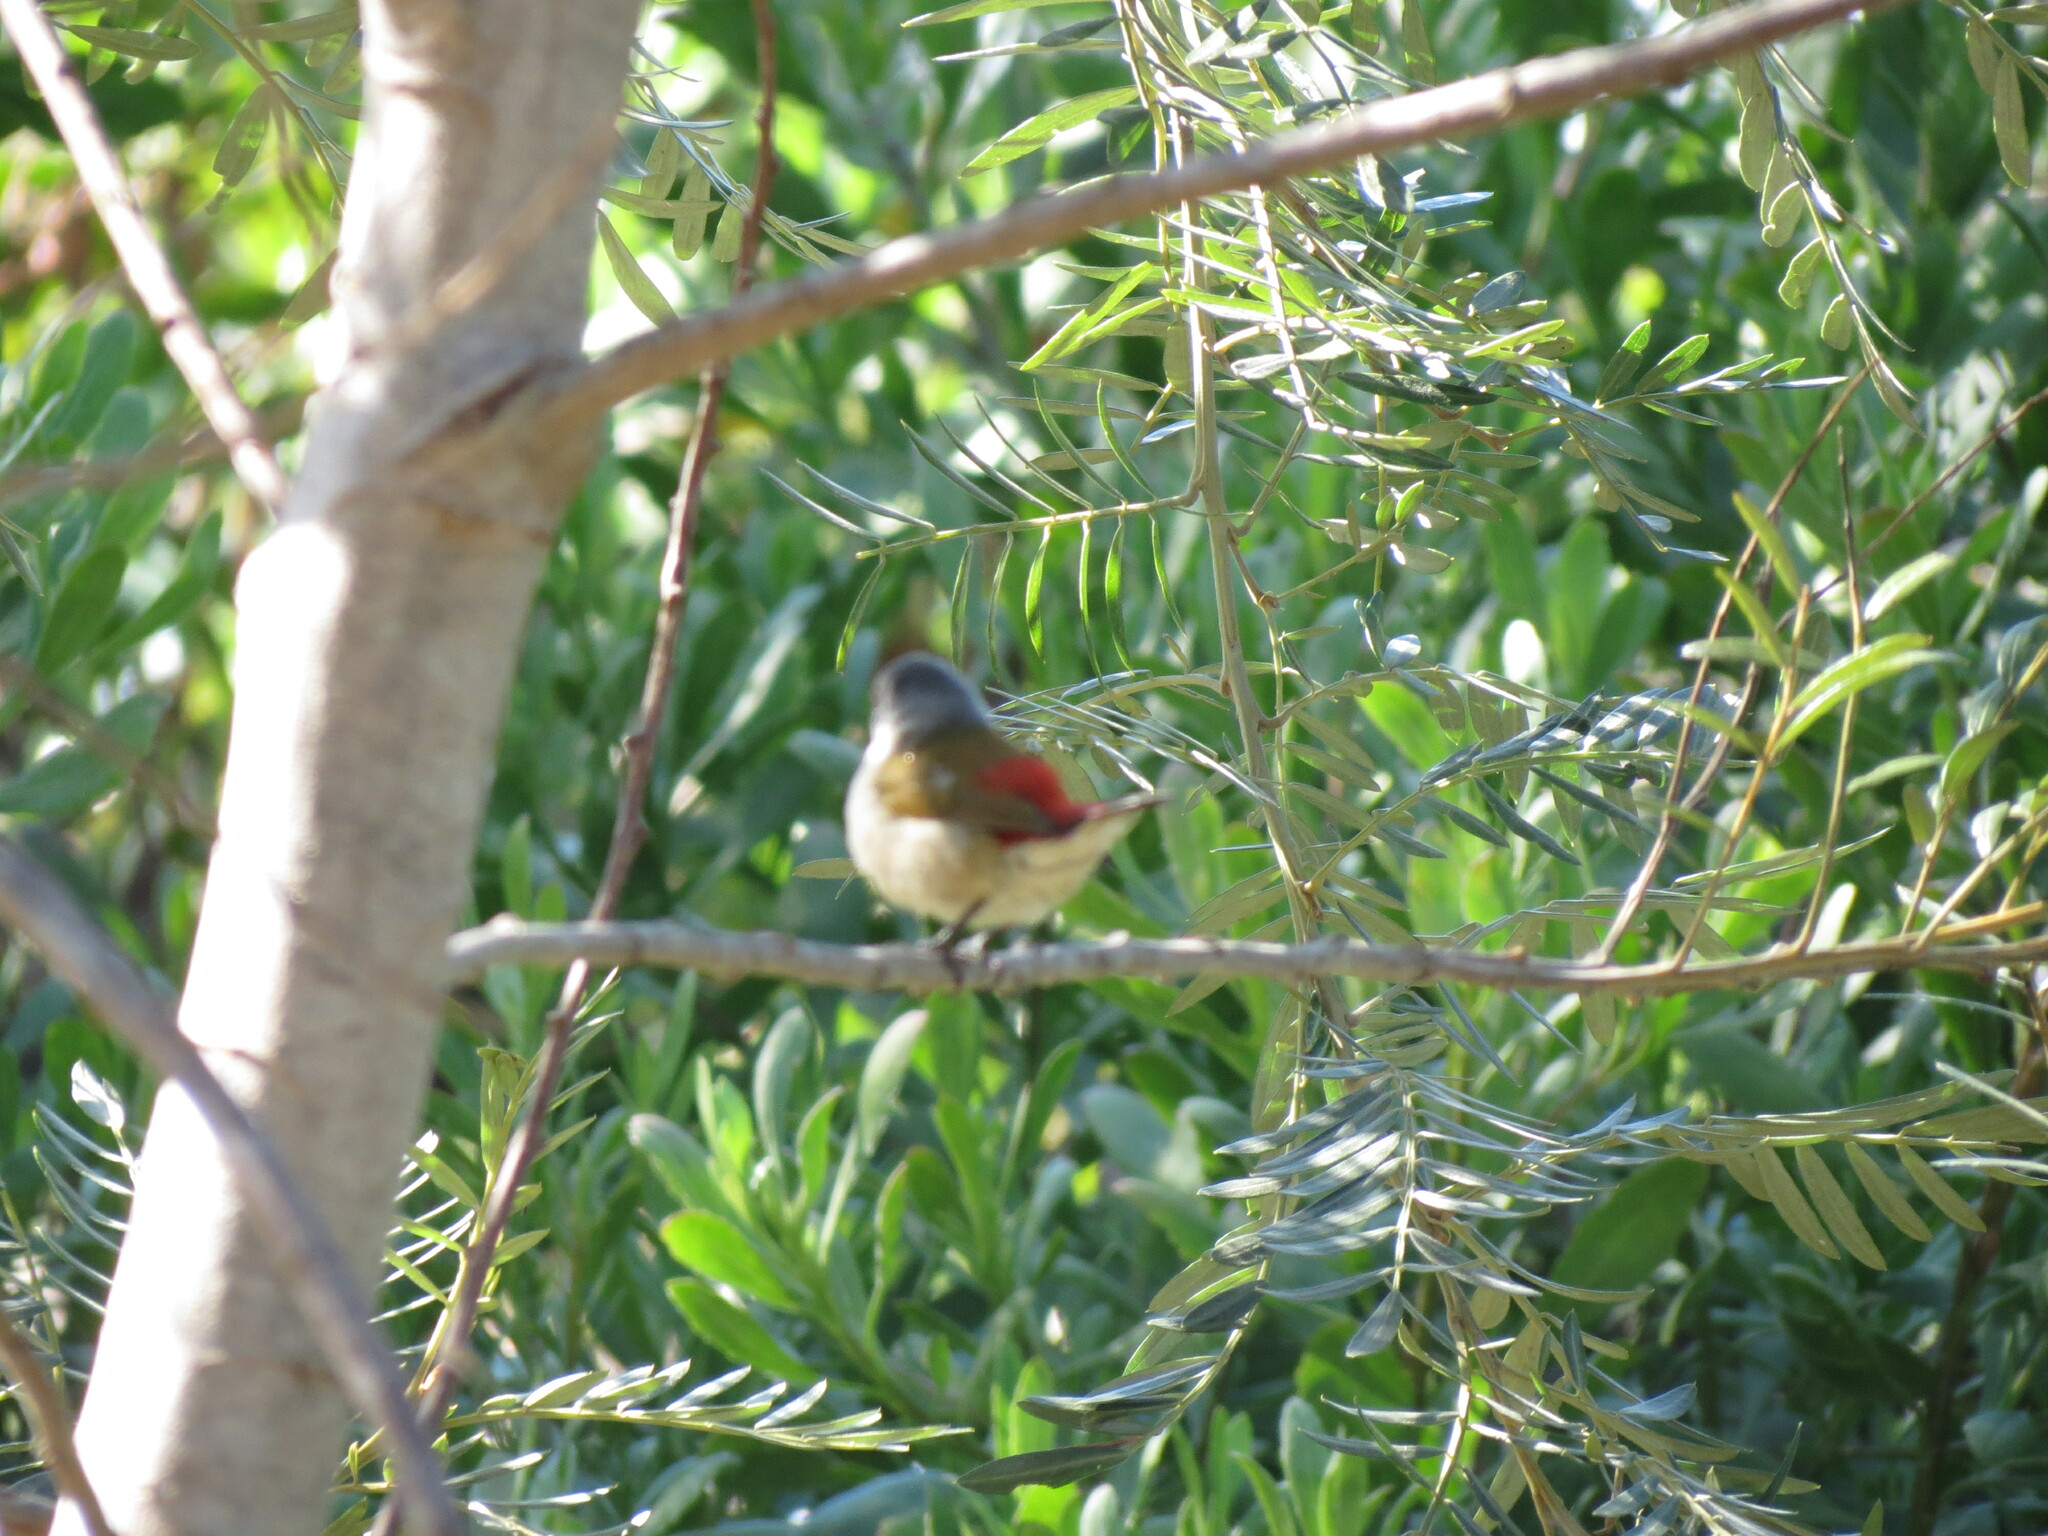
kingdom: Animalia
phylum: Chordata
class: Aves
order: Passeriformes
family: Estrildidae
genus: Coccopygia
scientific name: Coccopygia melanotis
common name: Swee waxbill
